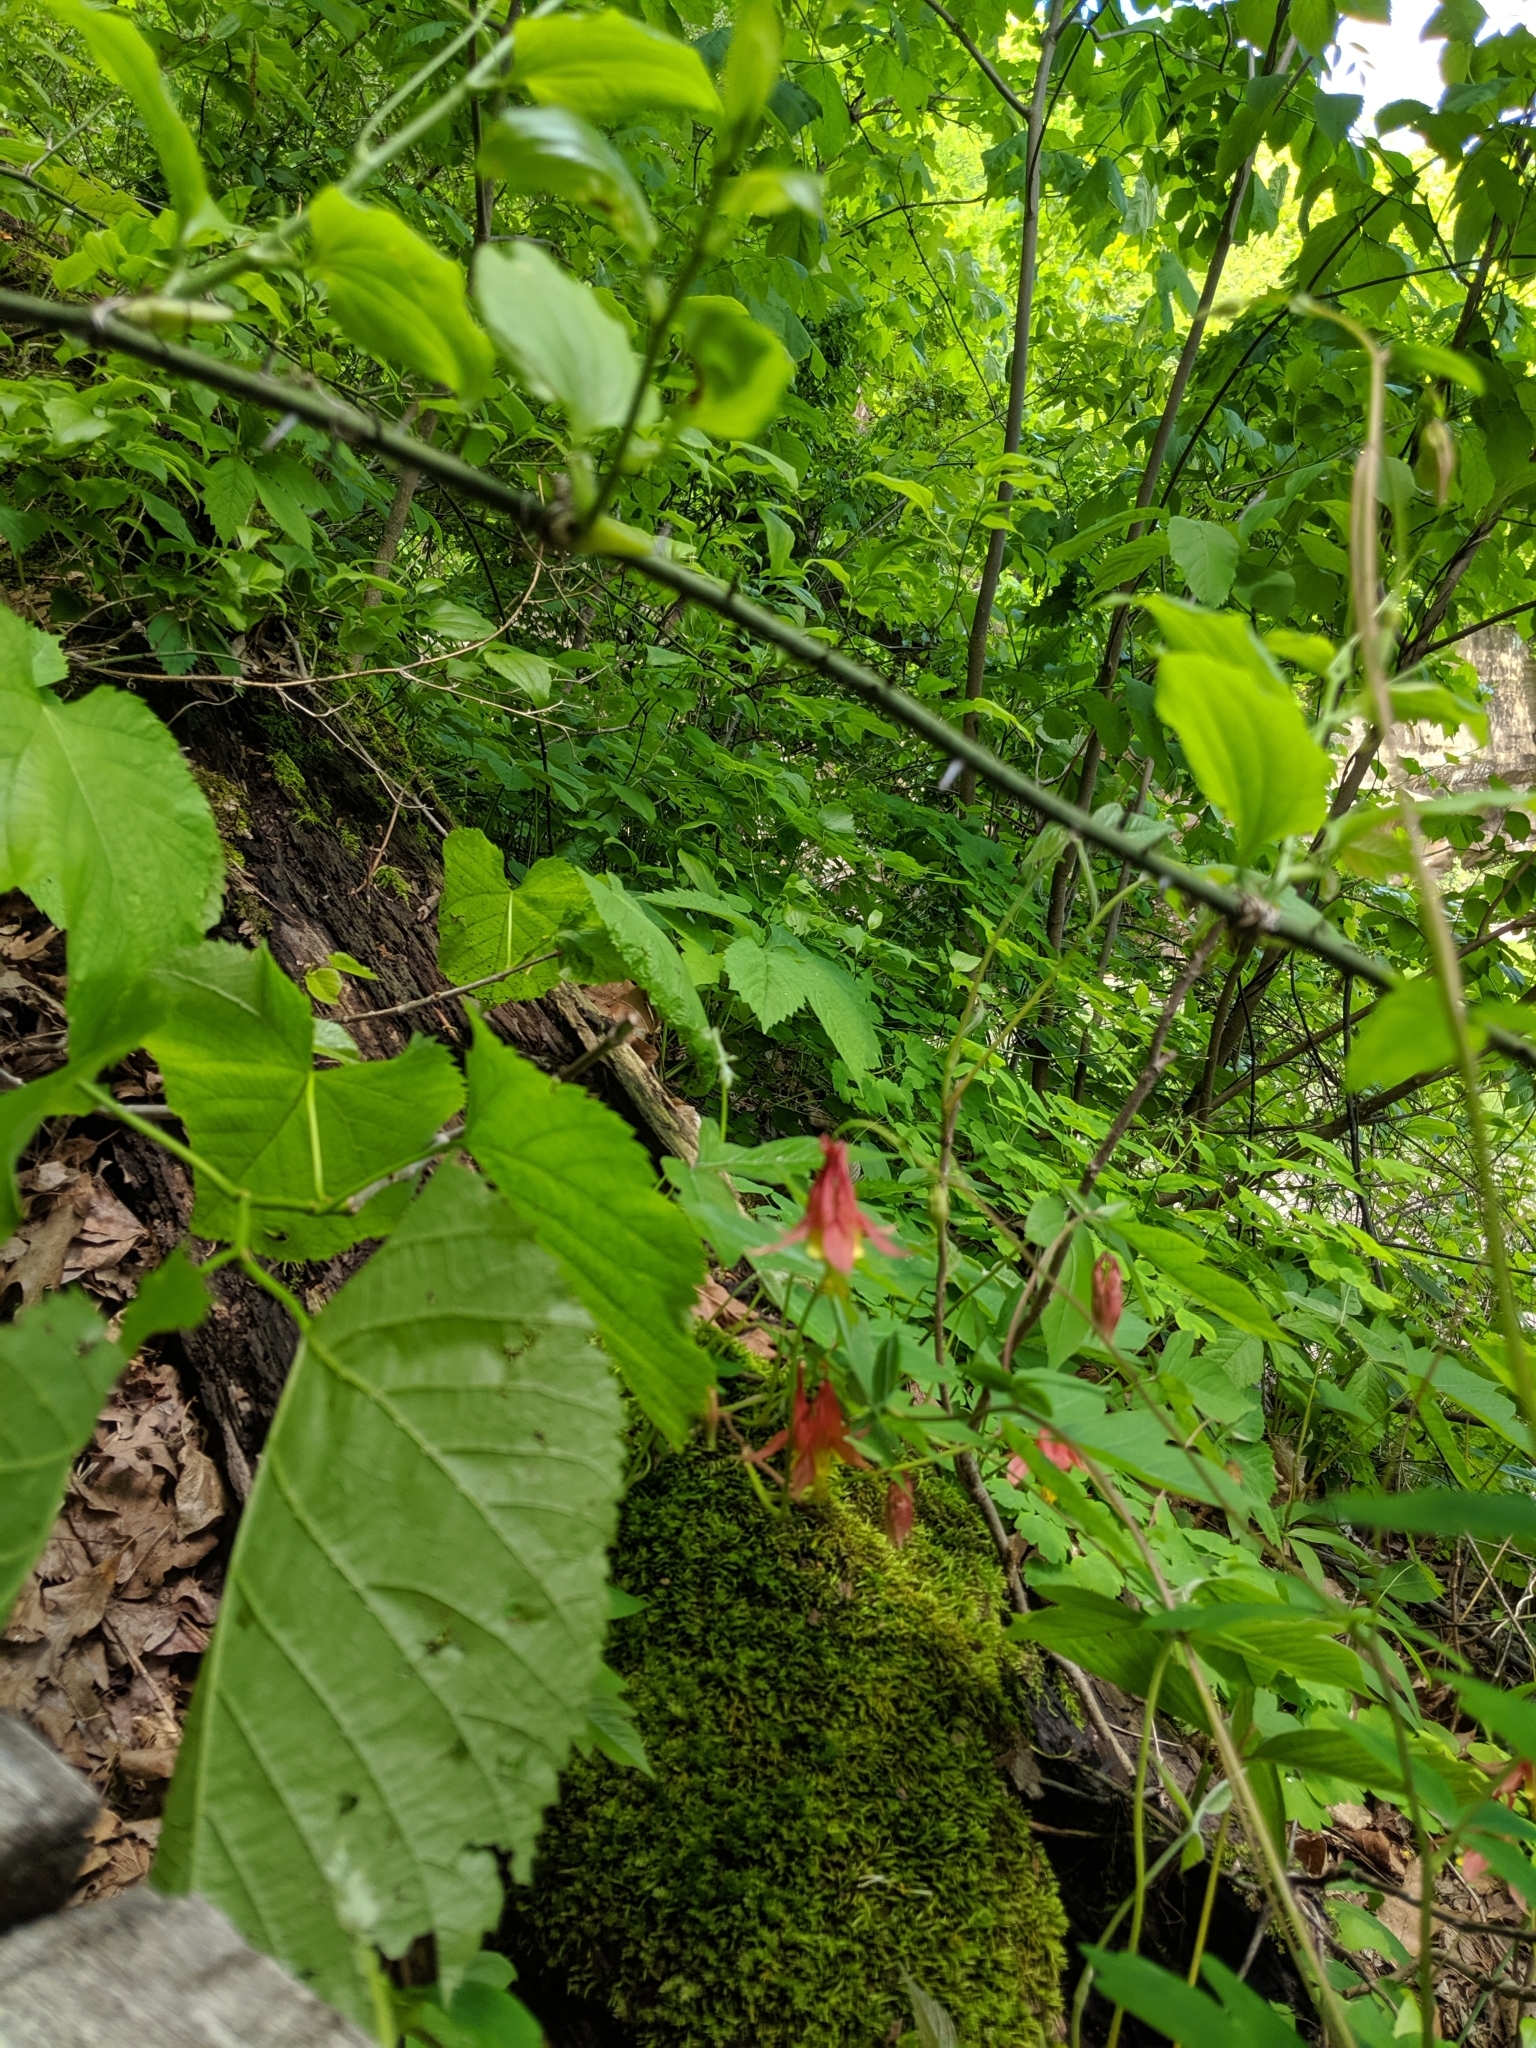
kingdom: Plantae
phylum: Tracheophyta
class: Magnoliopsida
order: Ranunculales
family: Ranunculaceae
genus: Aquilegia
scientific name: Aquilegia canadensis
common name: American columbine
